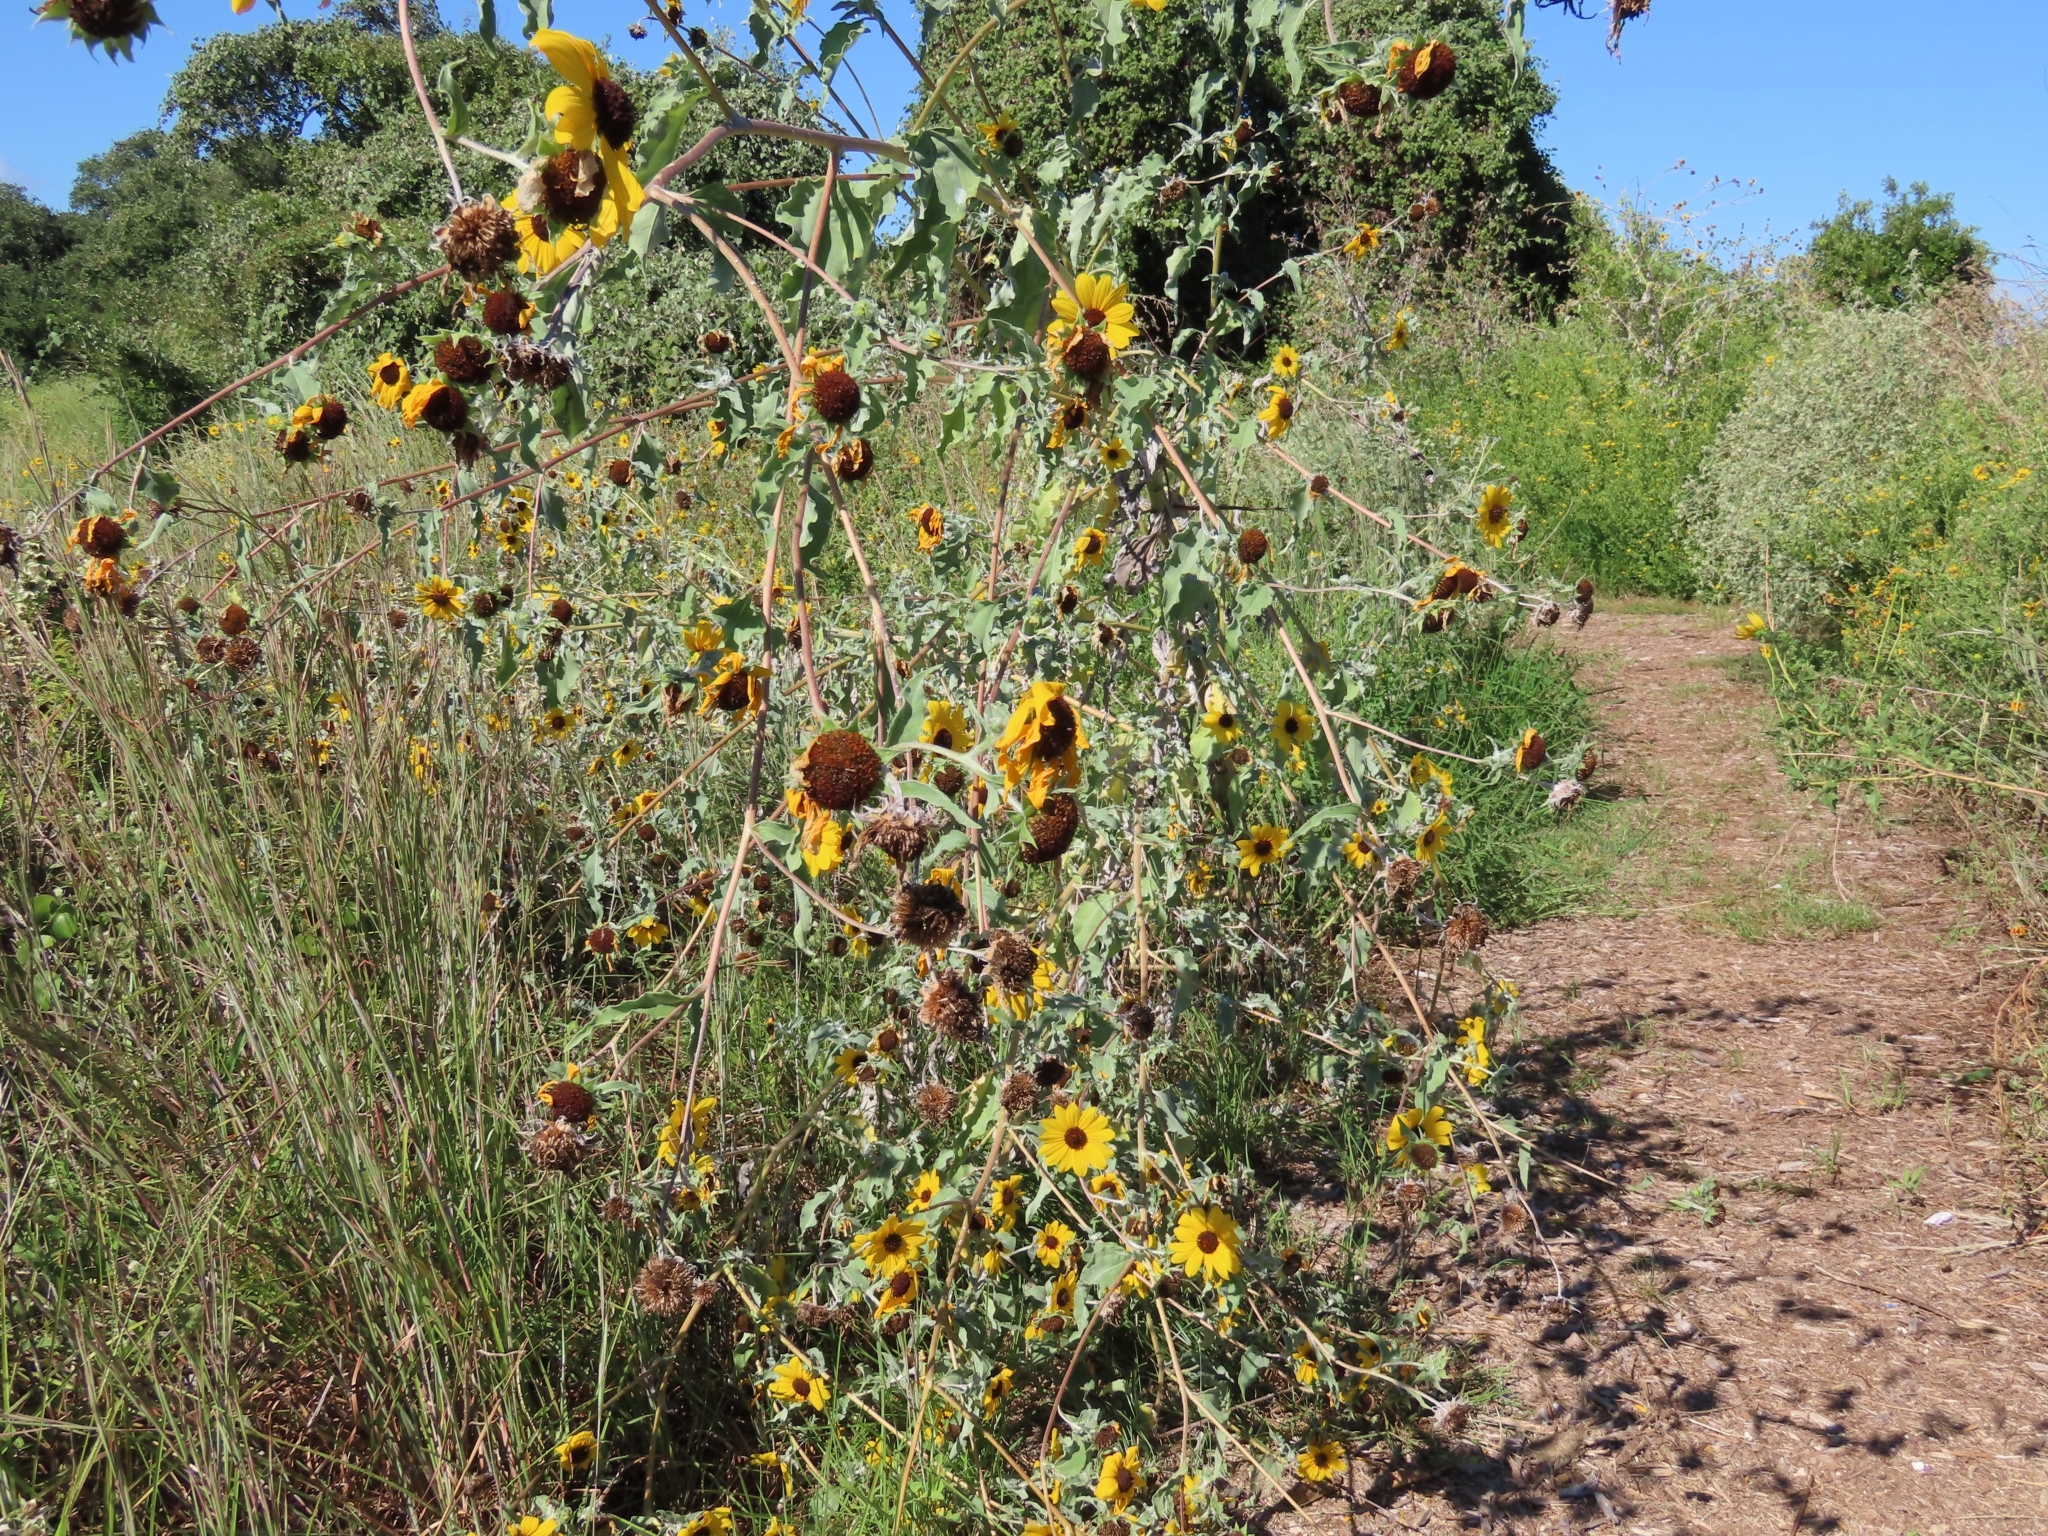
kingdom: Plantae
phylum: Tracheophyta
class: Magnoliopsida
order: Asterales
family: Asteraceae
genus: Helianthus
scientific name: Helianthus argophyllus
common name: Silverleaf sunflower
